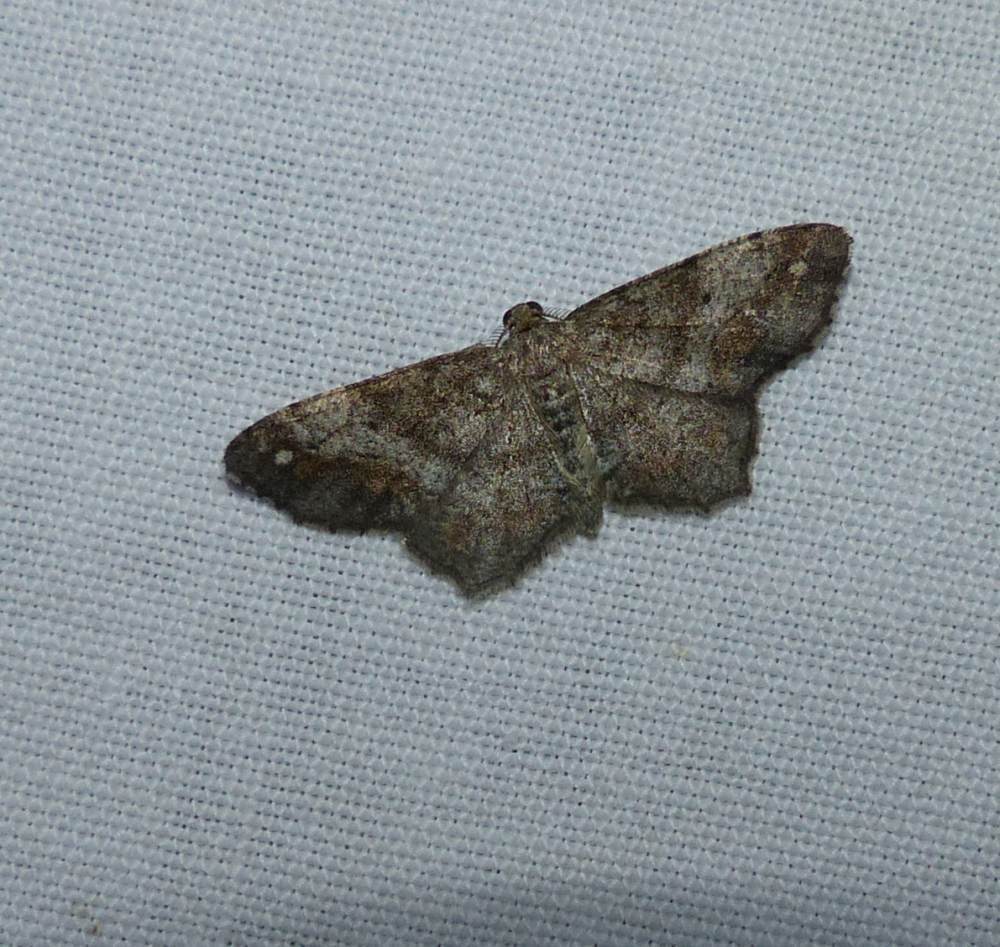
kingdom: Animalia
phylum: Arthropoda
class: Insecta
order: Lepidoptera
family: Geometridae
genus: Hypagyrtis
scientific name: Hypagyrtis unipunctata
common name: One-spotted variant
